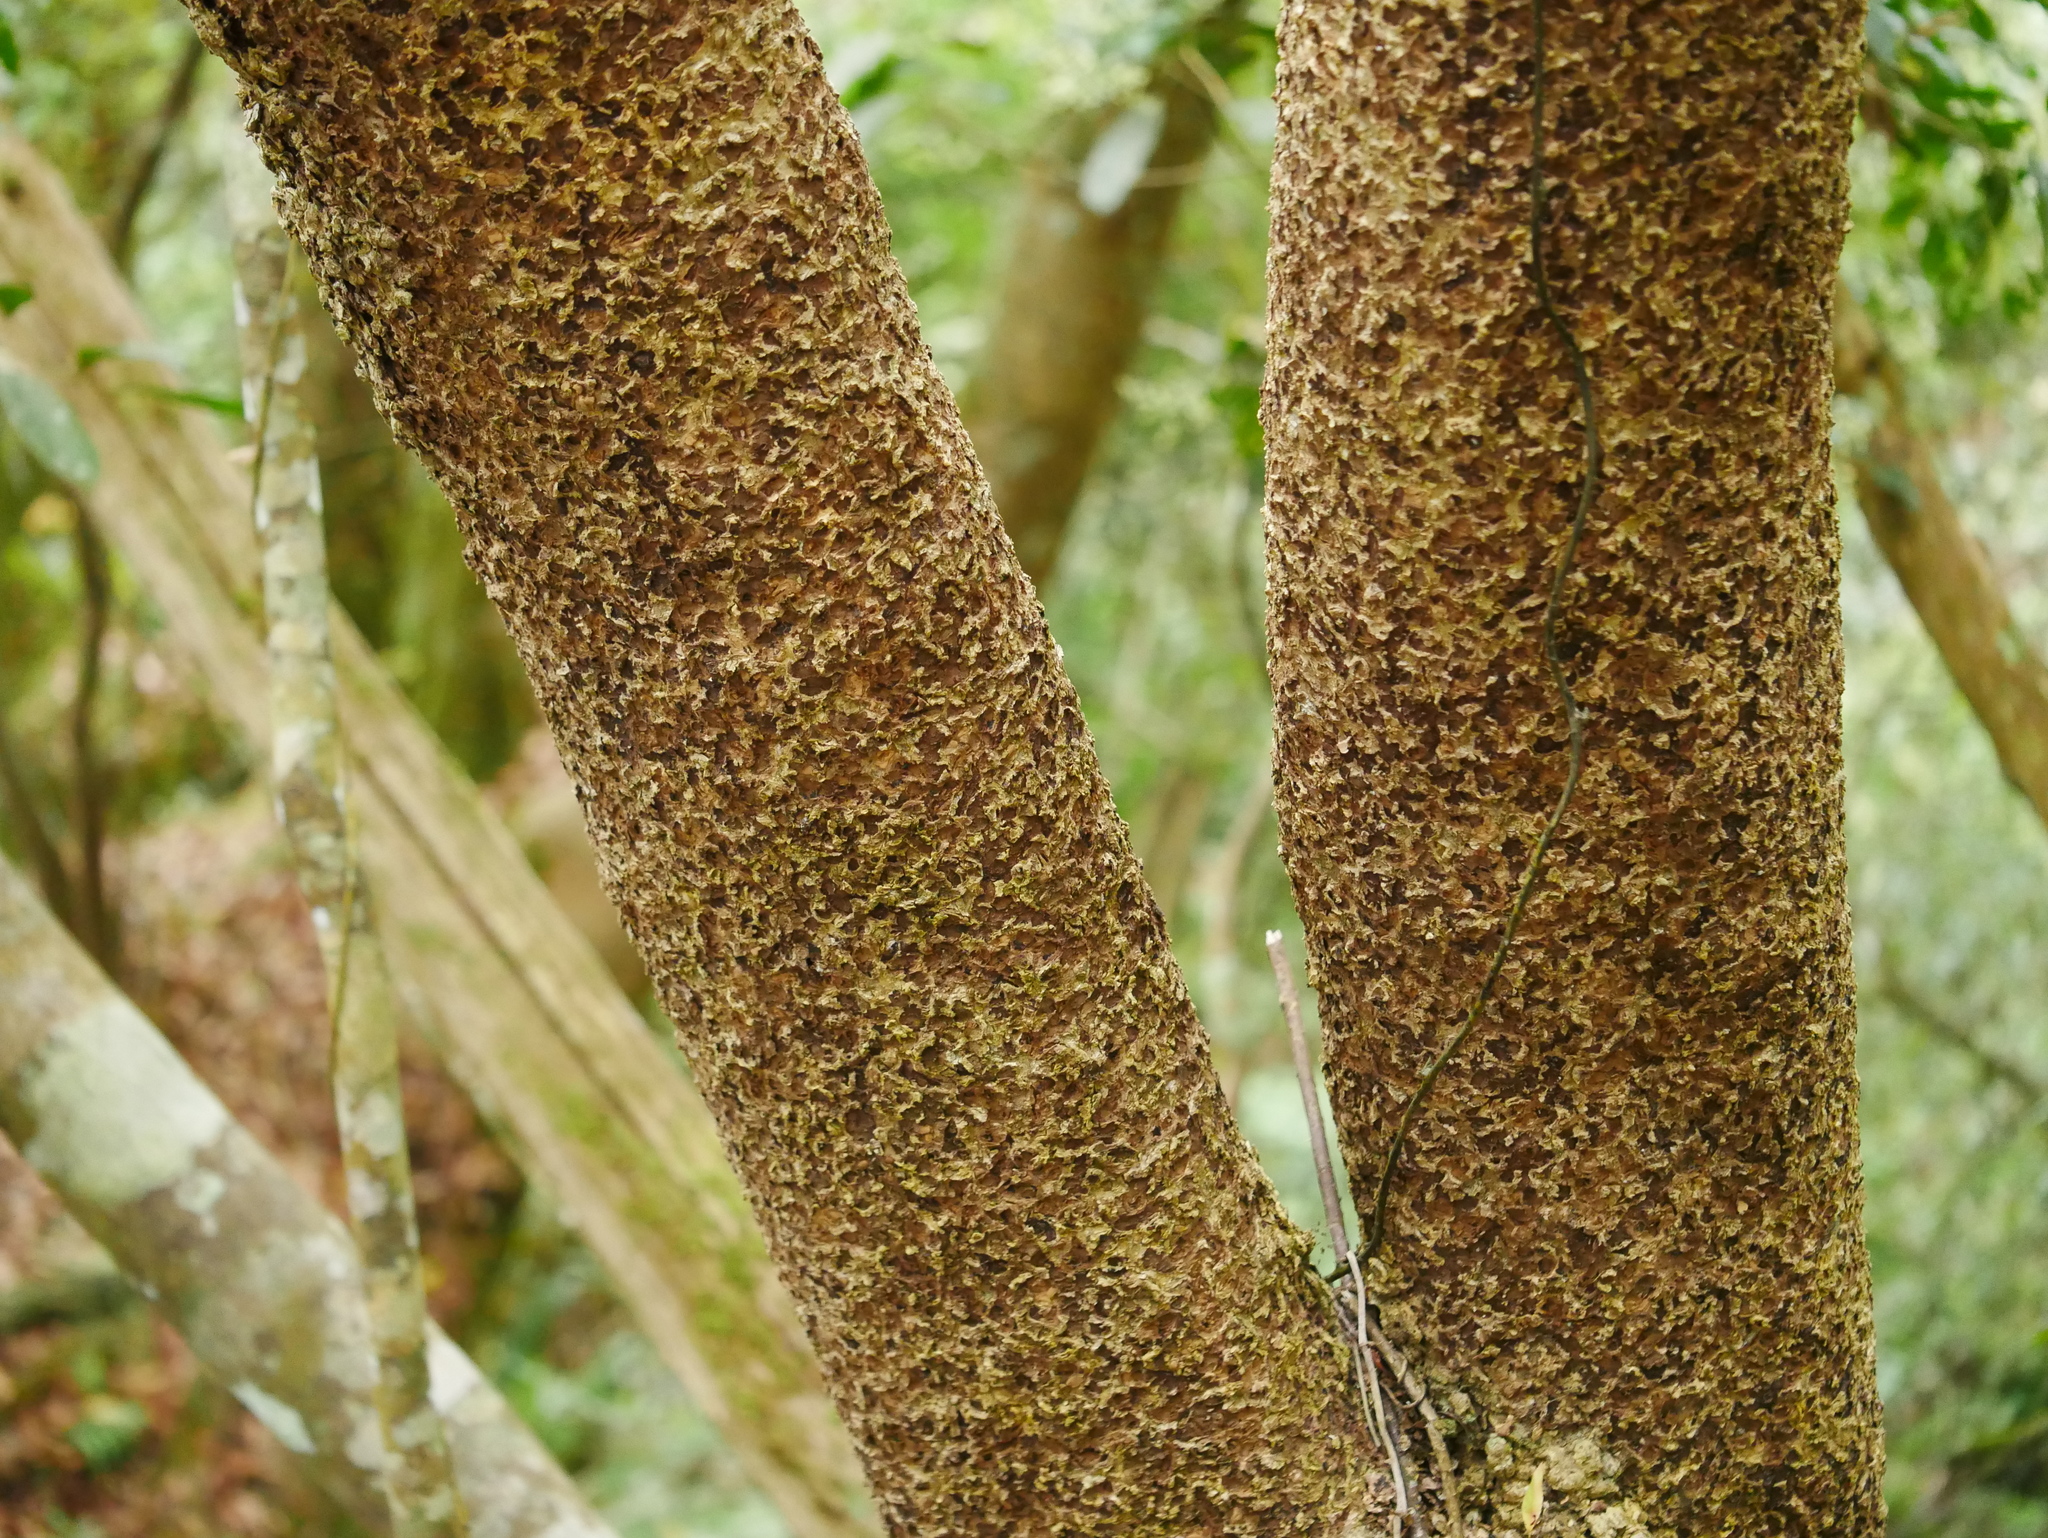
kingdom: Plantae
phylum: Tracheophyta
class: Magnoliopsida
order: Apiales
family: Araliaceae
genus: Heptapleurum
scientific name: Heptapleurum heptaphyllum
